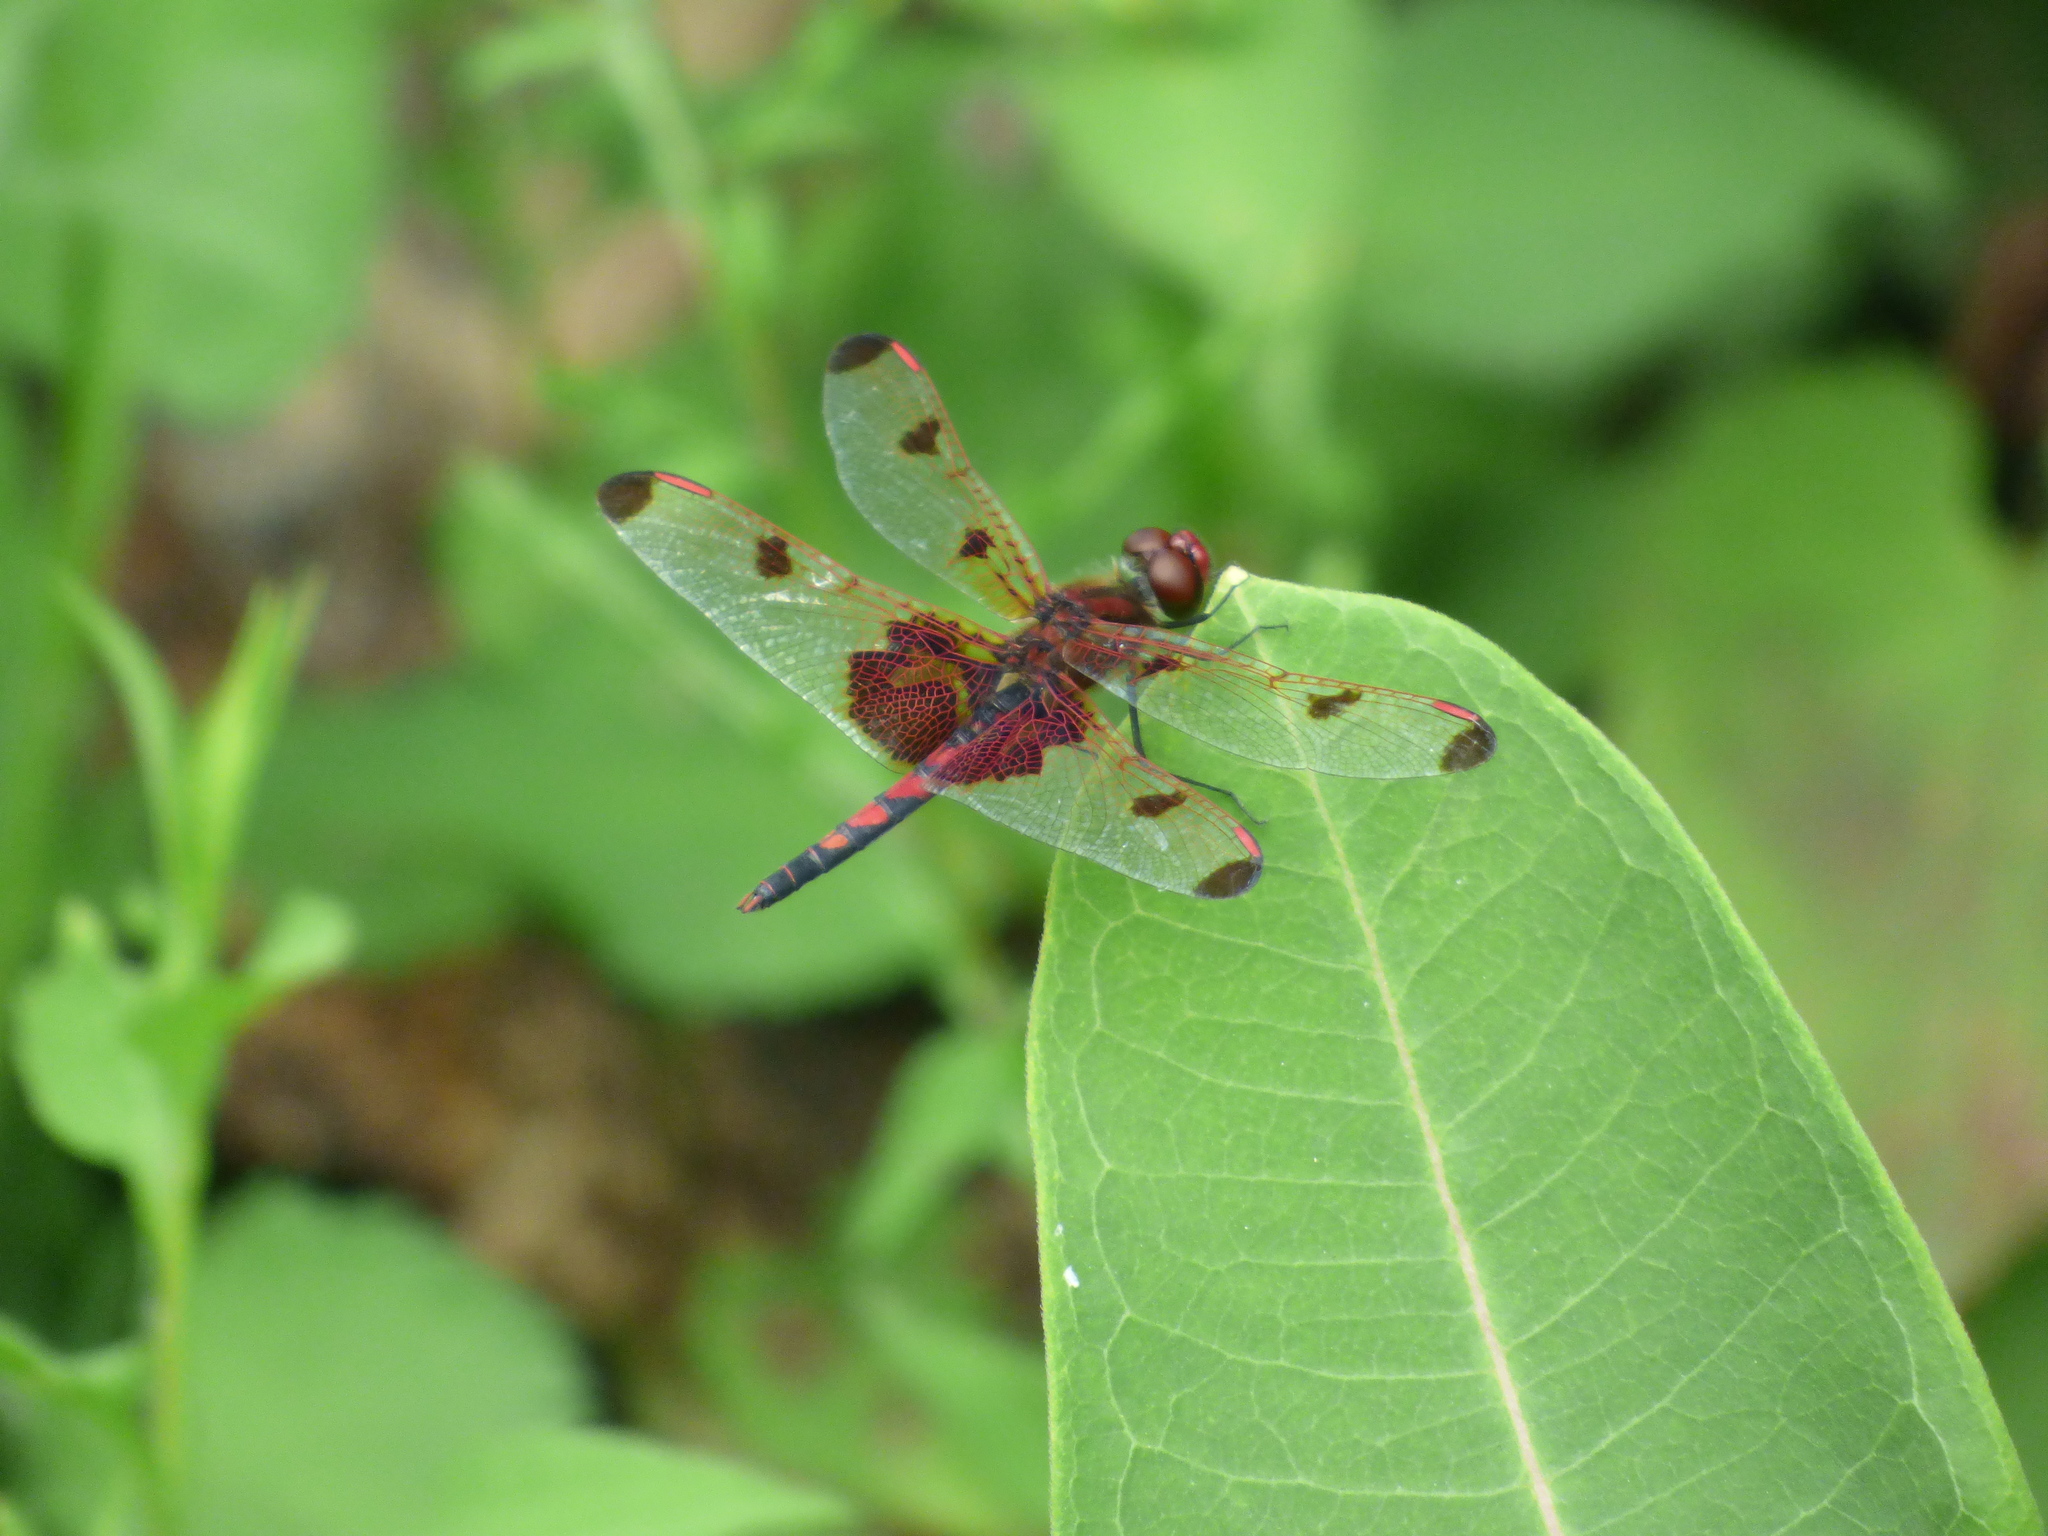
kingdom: Animalia
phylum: Arthropoda
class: Insecta
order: Odonata
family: Libellulidae
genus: Celithemis
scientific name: Celithemis elisa
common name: Calico pennant
